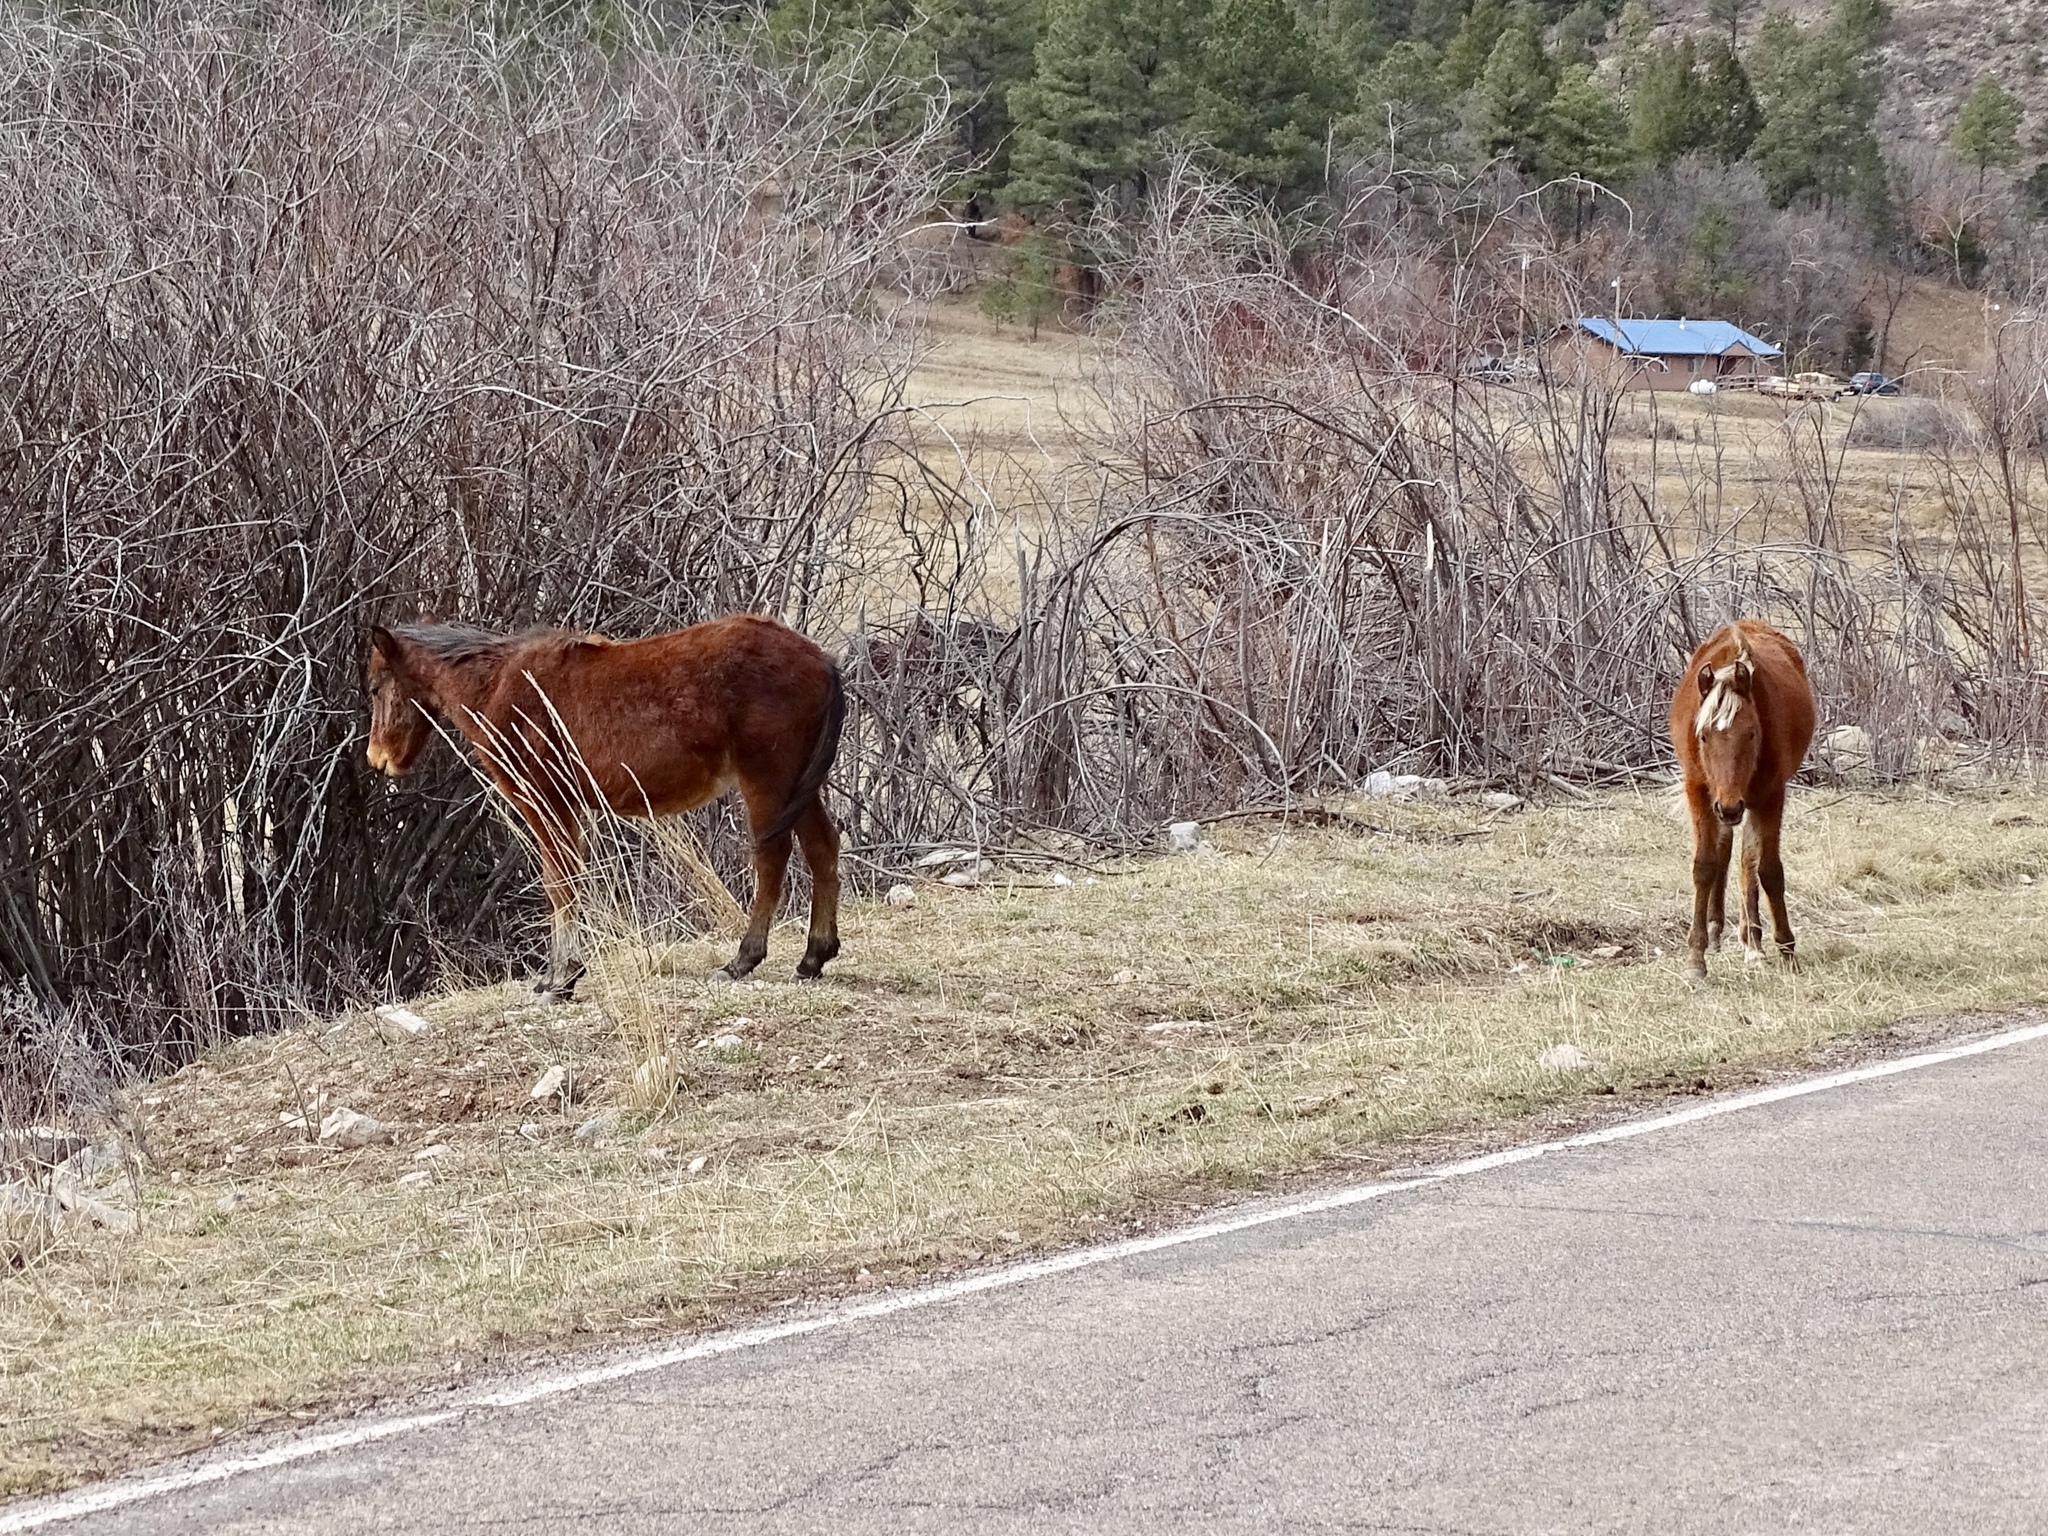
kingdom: Animalia
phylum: Chordata
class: Mammalia
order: Perissodactyla
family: Equidae
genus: Equus
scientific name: Equus caballus
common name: Horse
